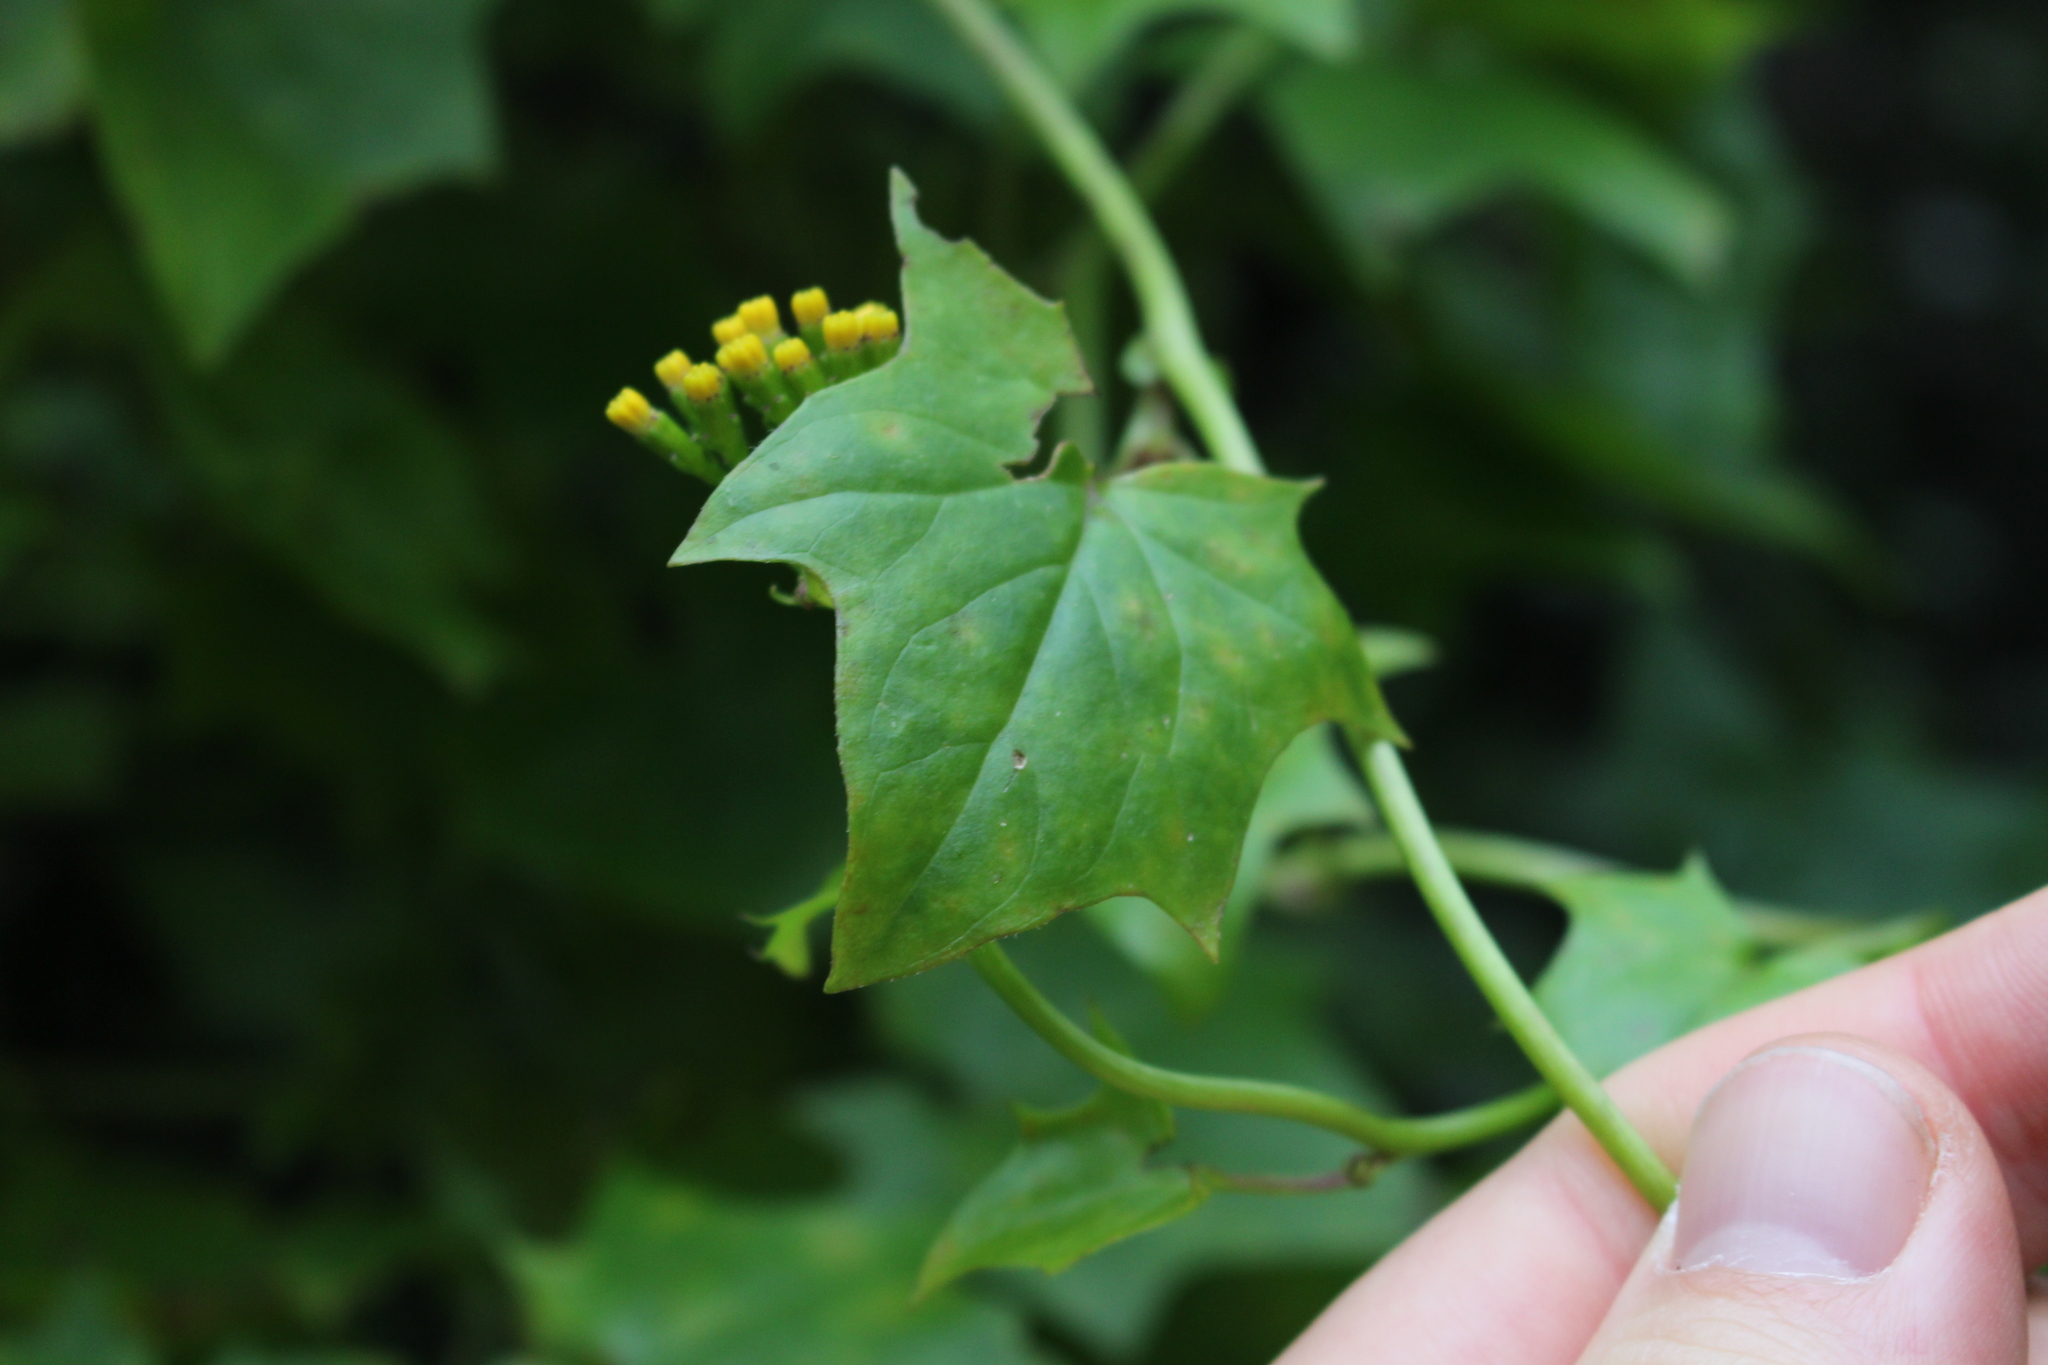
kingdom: Plantae
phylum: Tracheophyta
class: Magnoliopsida
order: Asterales
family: Asteraceae
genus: Delairea
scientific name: Delairea odorata
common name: Cape-ivy
